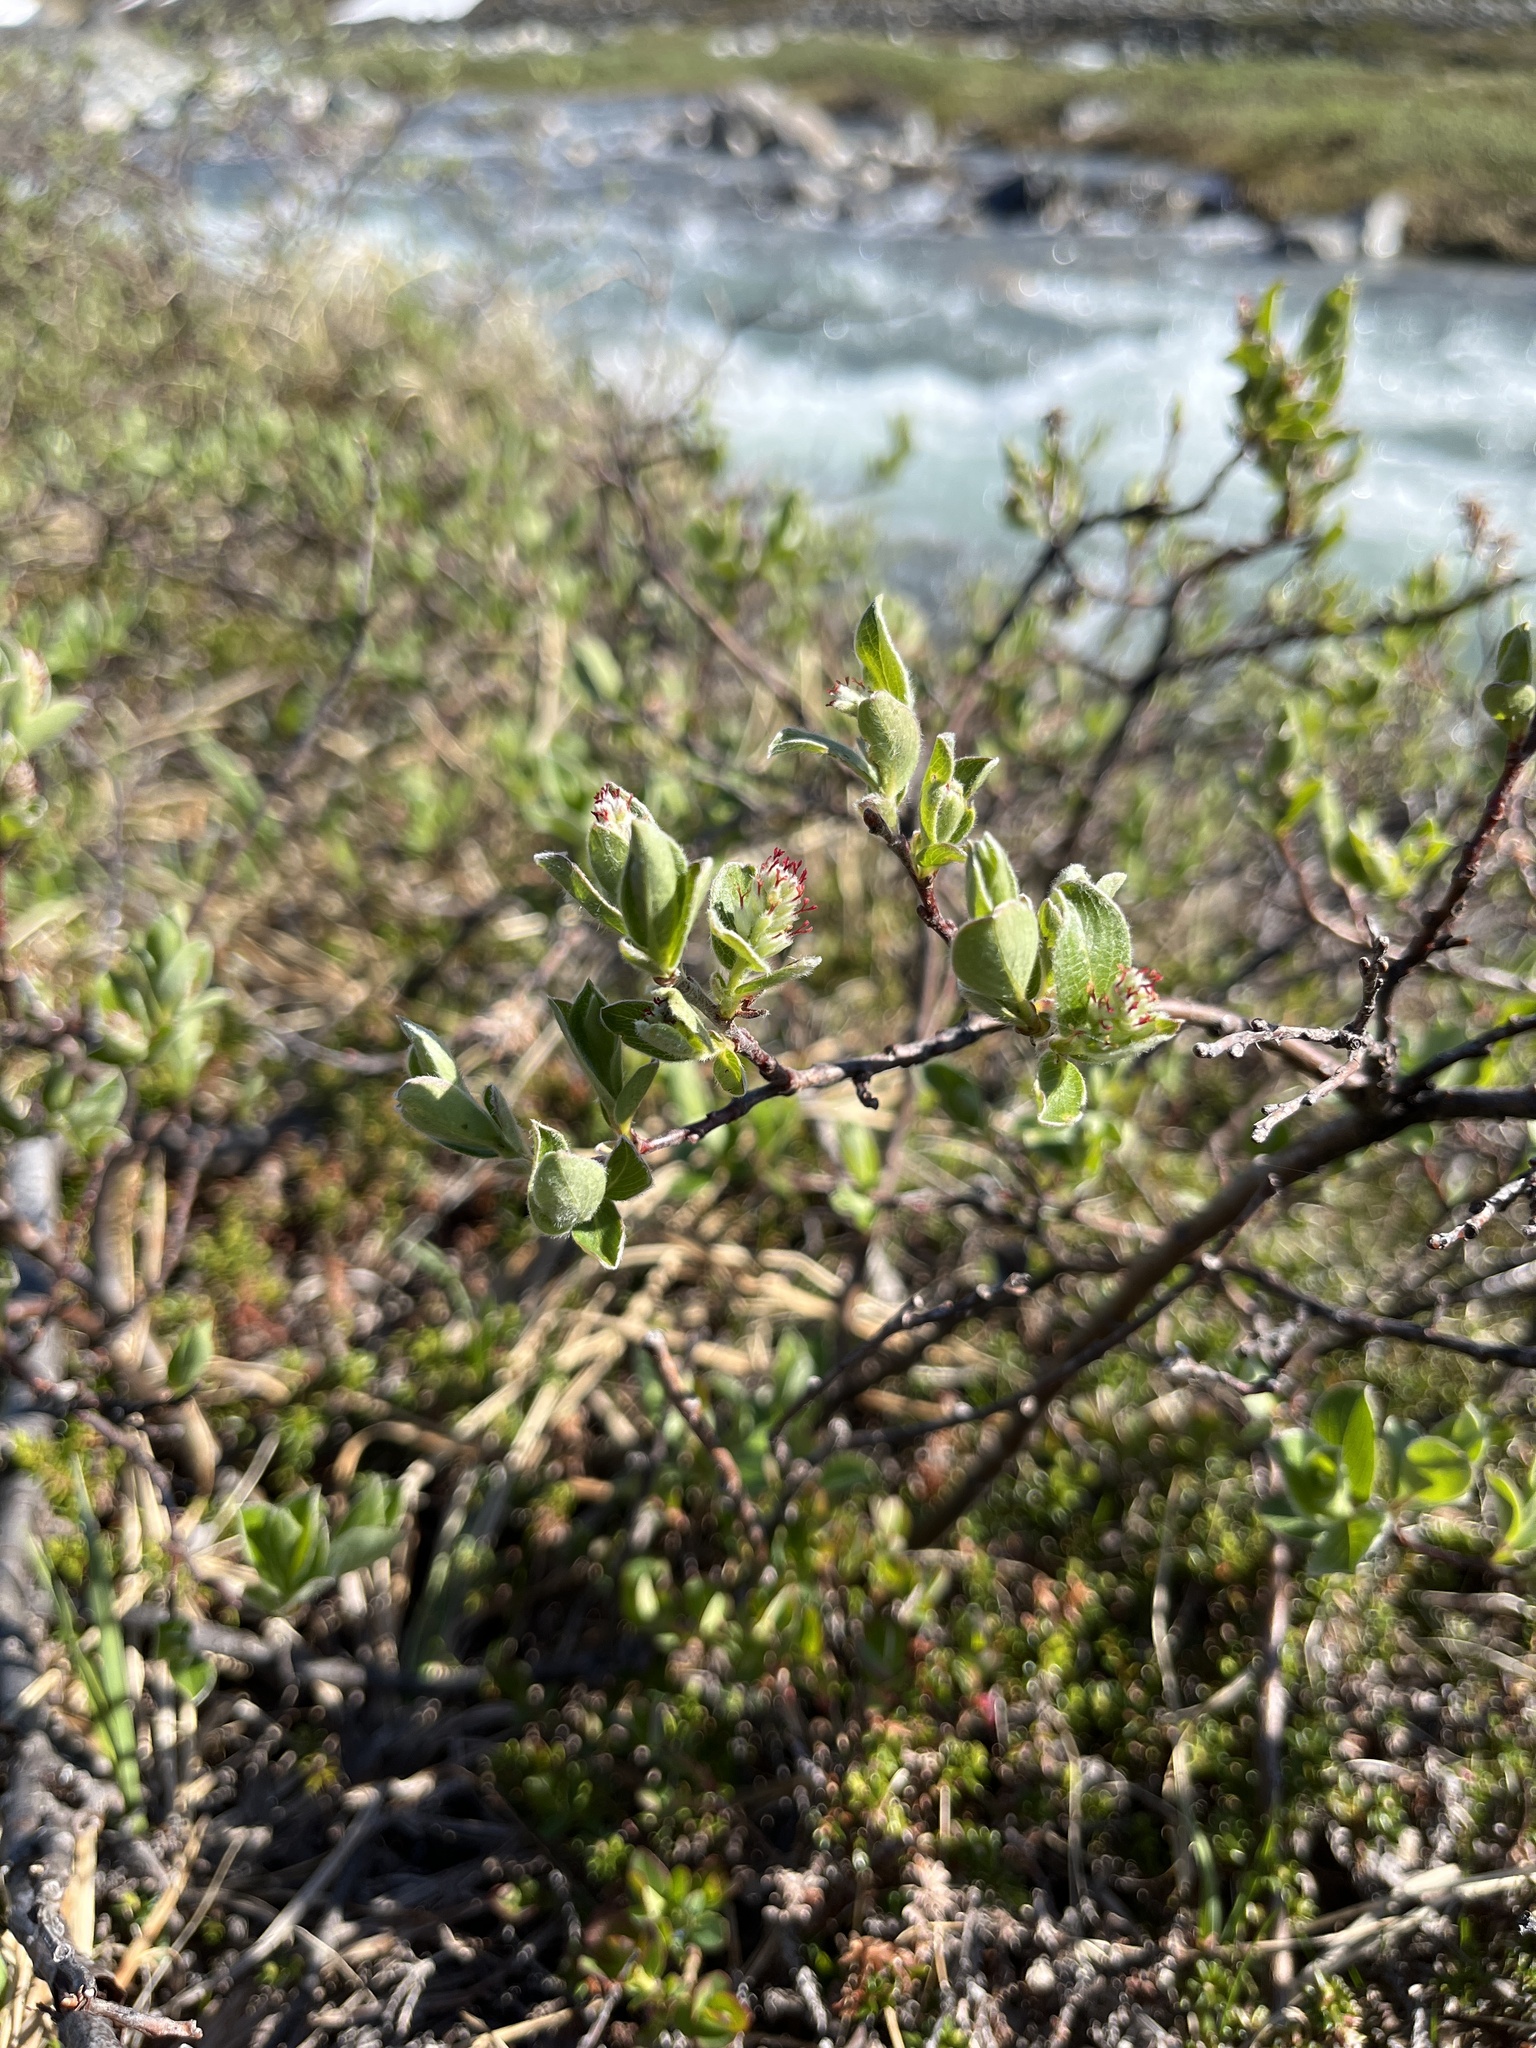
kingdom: Plantae
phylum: Tracheophyta
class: Magnoliopsida
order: Malpighiales
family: Salicaceae
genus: Salix
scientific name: Salix glauca
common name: Glaucous willow
